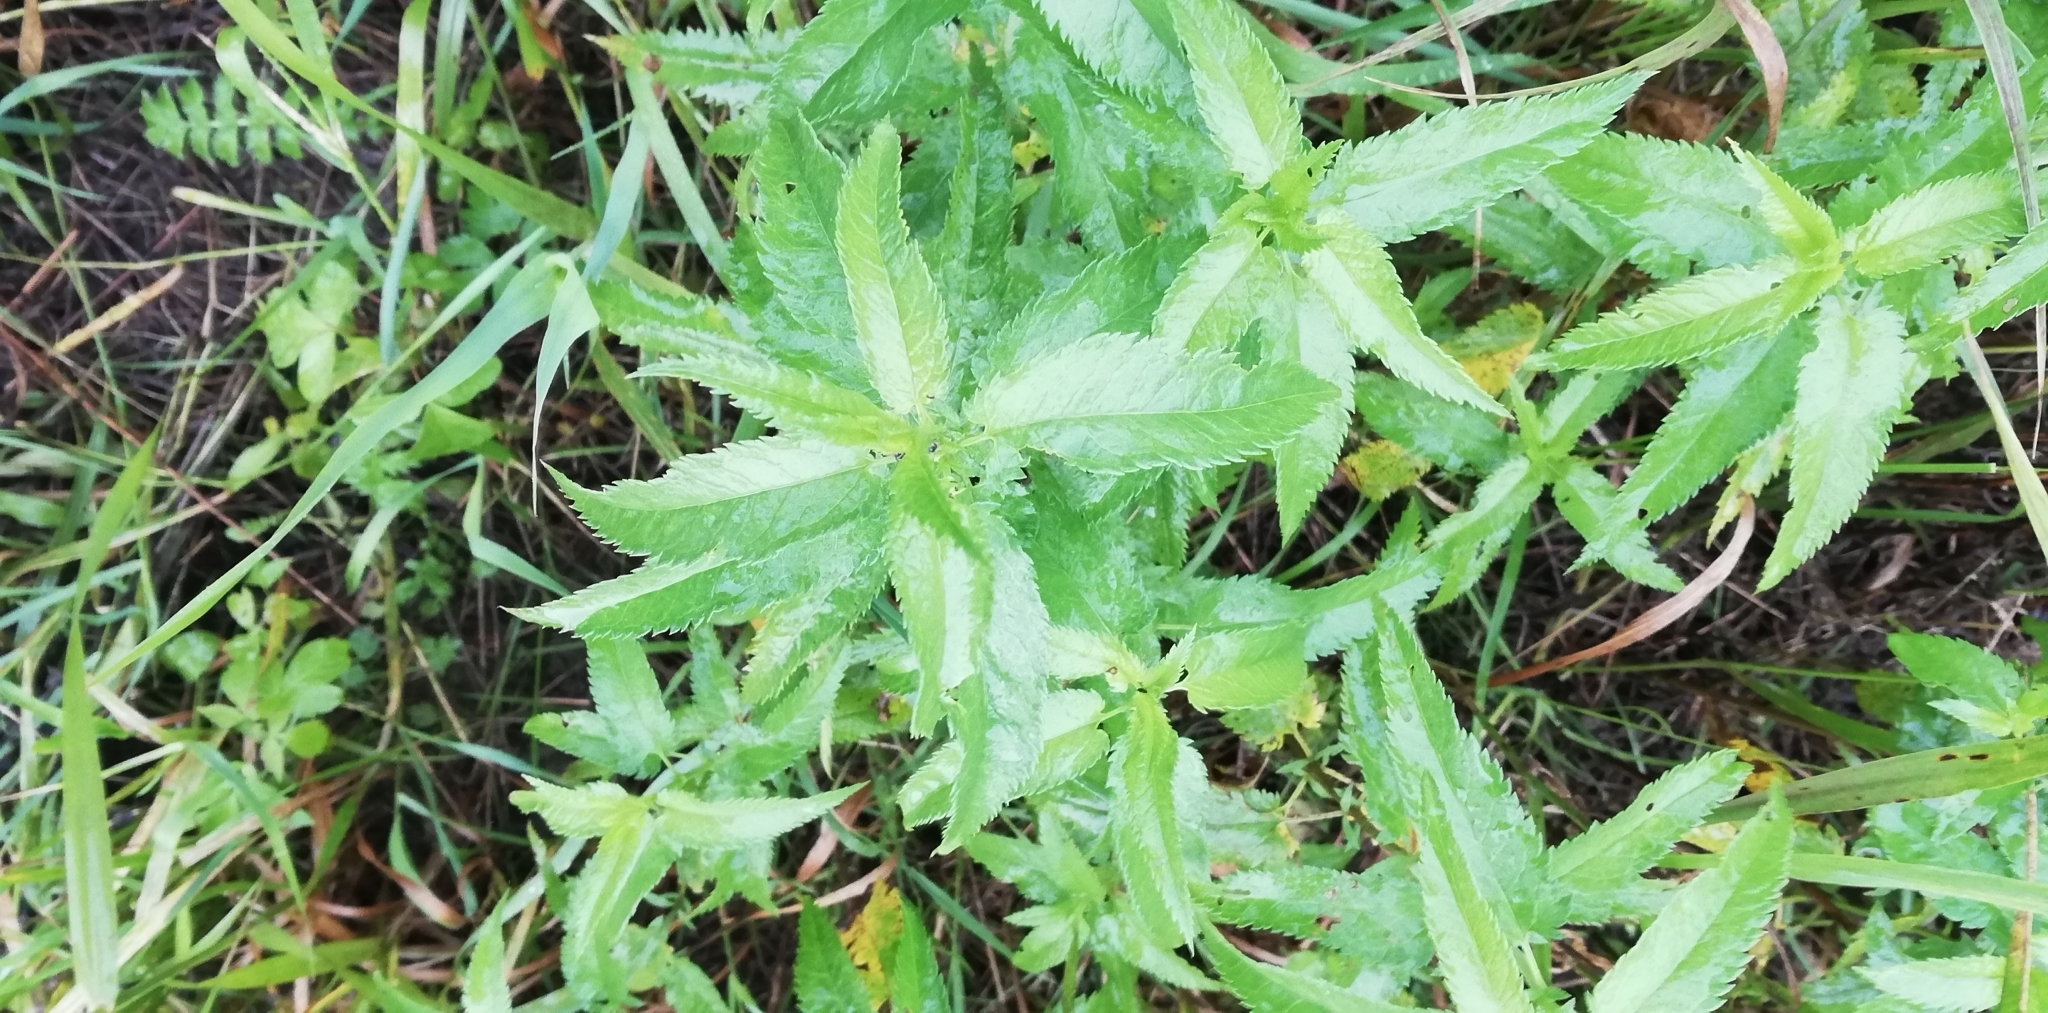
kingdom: Plantae
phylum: Tracheophyta
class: Magnoliopsida
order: Lamiales
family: Plantaginaceae
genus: Veronica
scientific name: Veronica longifolia
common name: Garden speedwell
